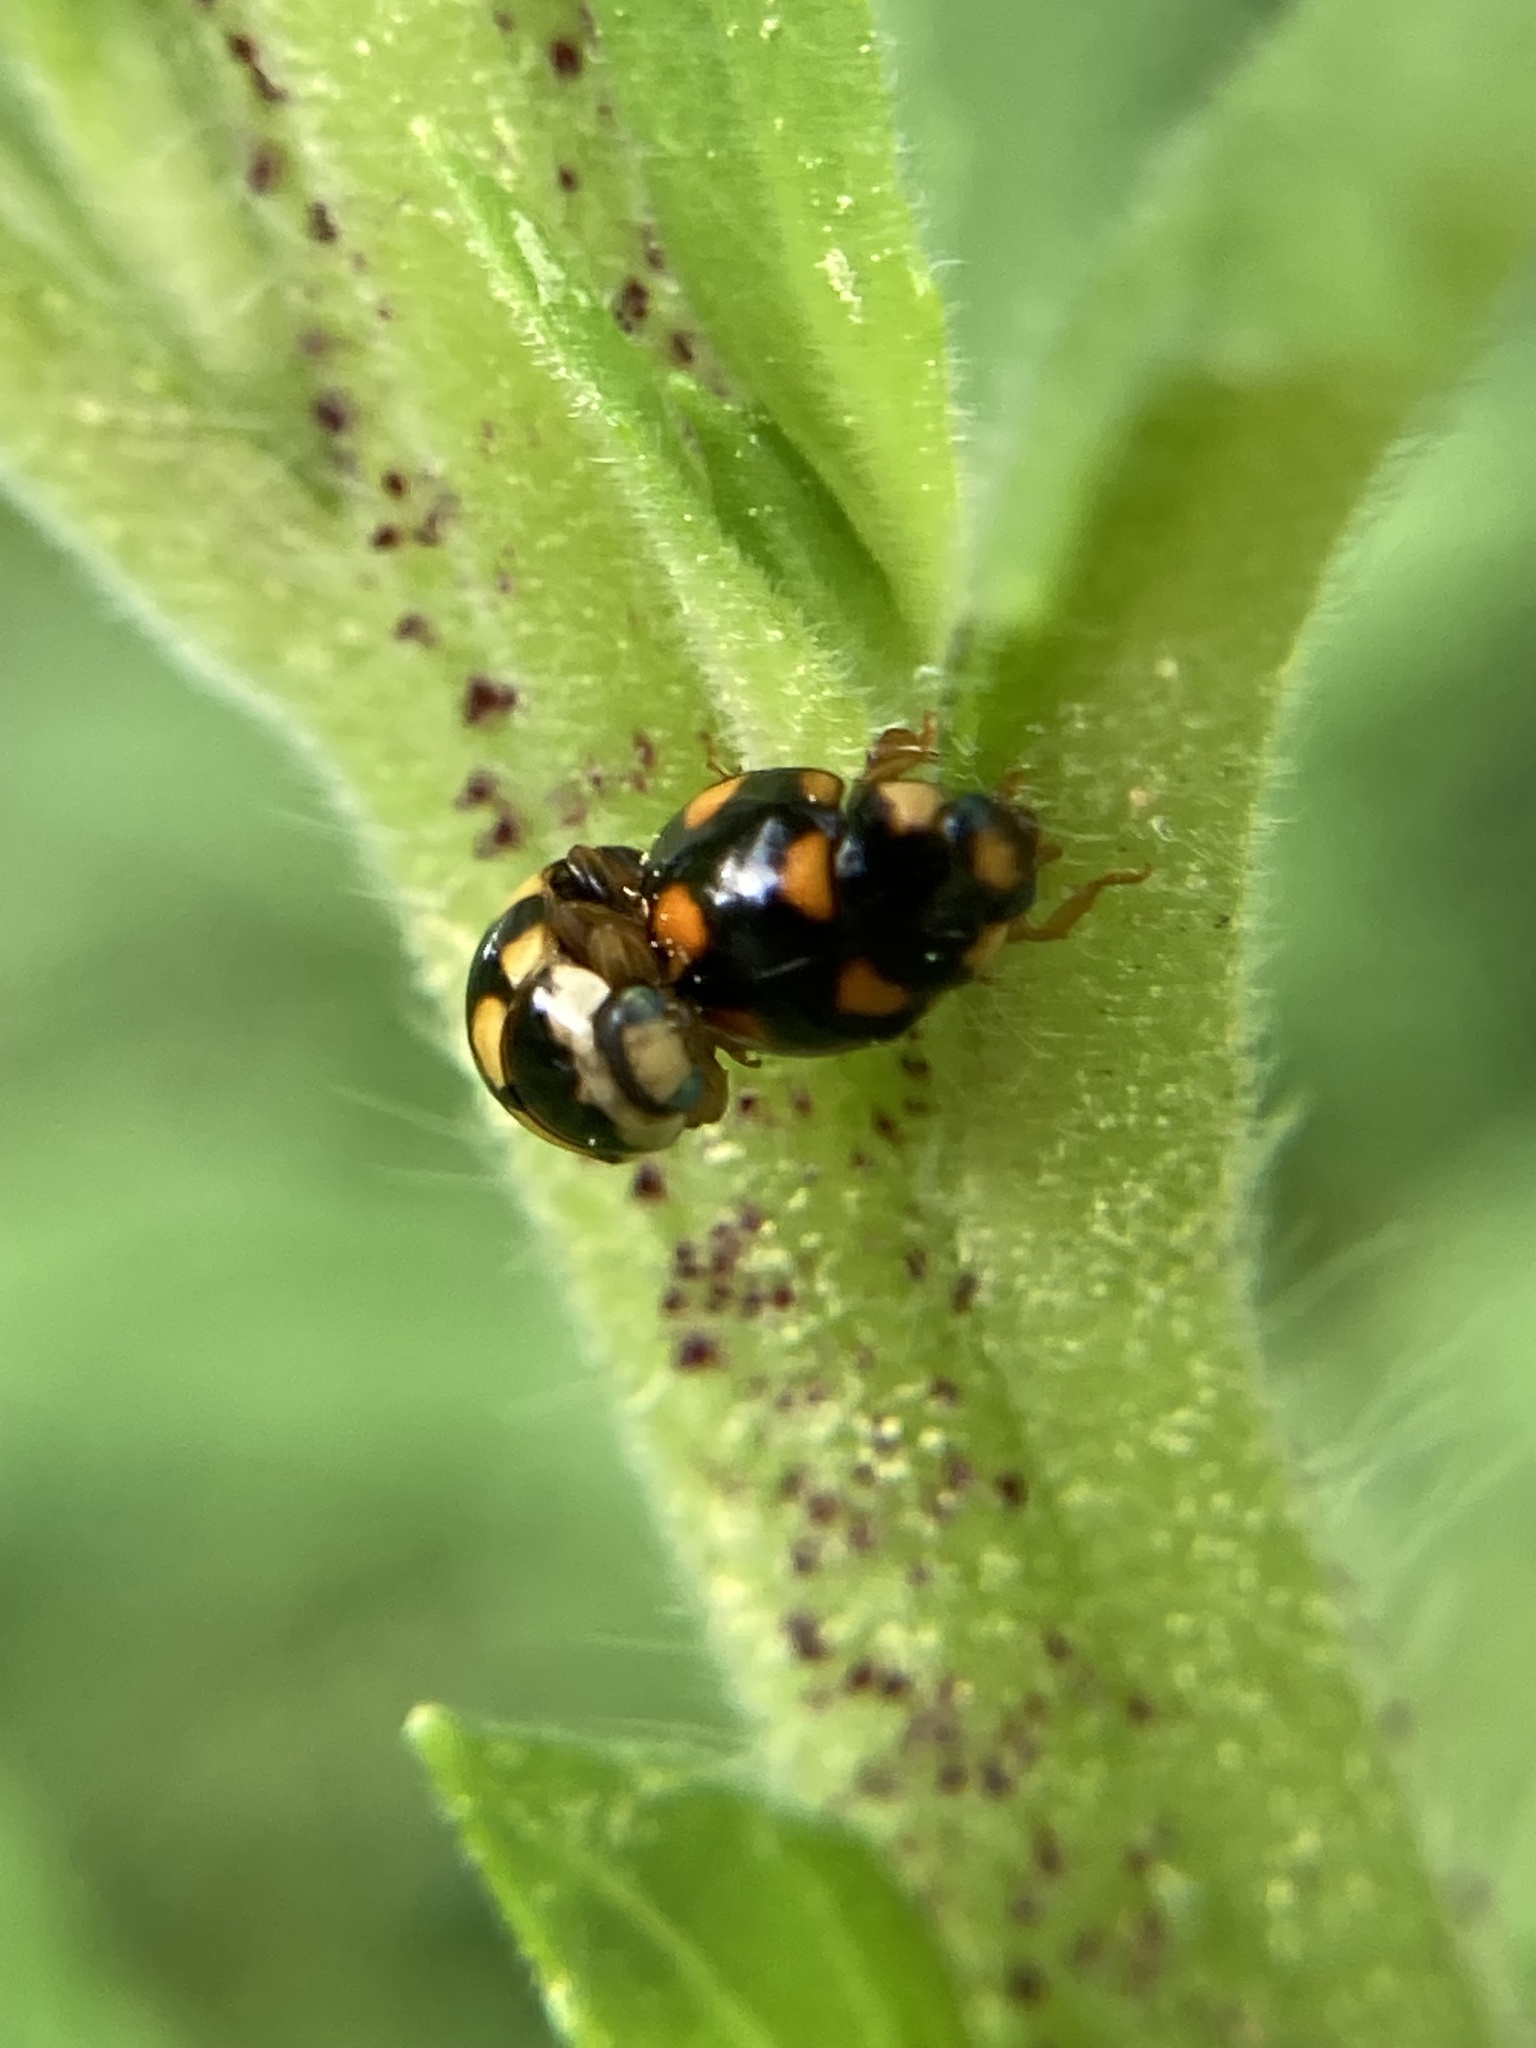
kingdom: Animalia
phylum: Arthropoda
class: Insecta
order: Coleoptera
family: Coccinellidae
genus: Brachiacantha
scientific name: Brachiacantha ursina
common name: Ursine spurleg lady beetle
